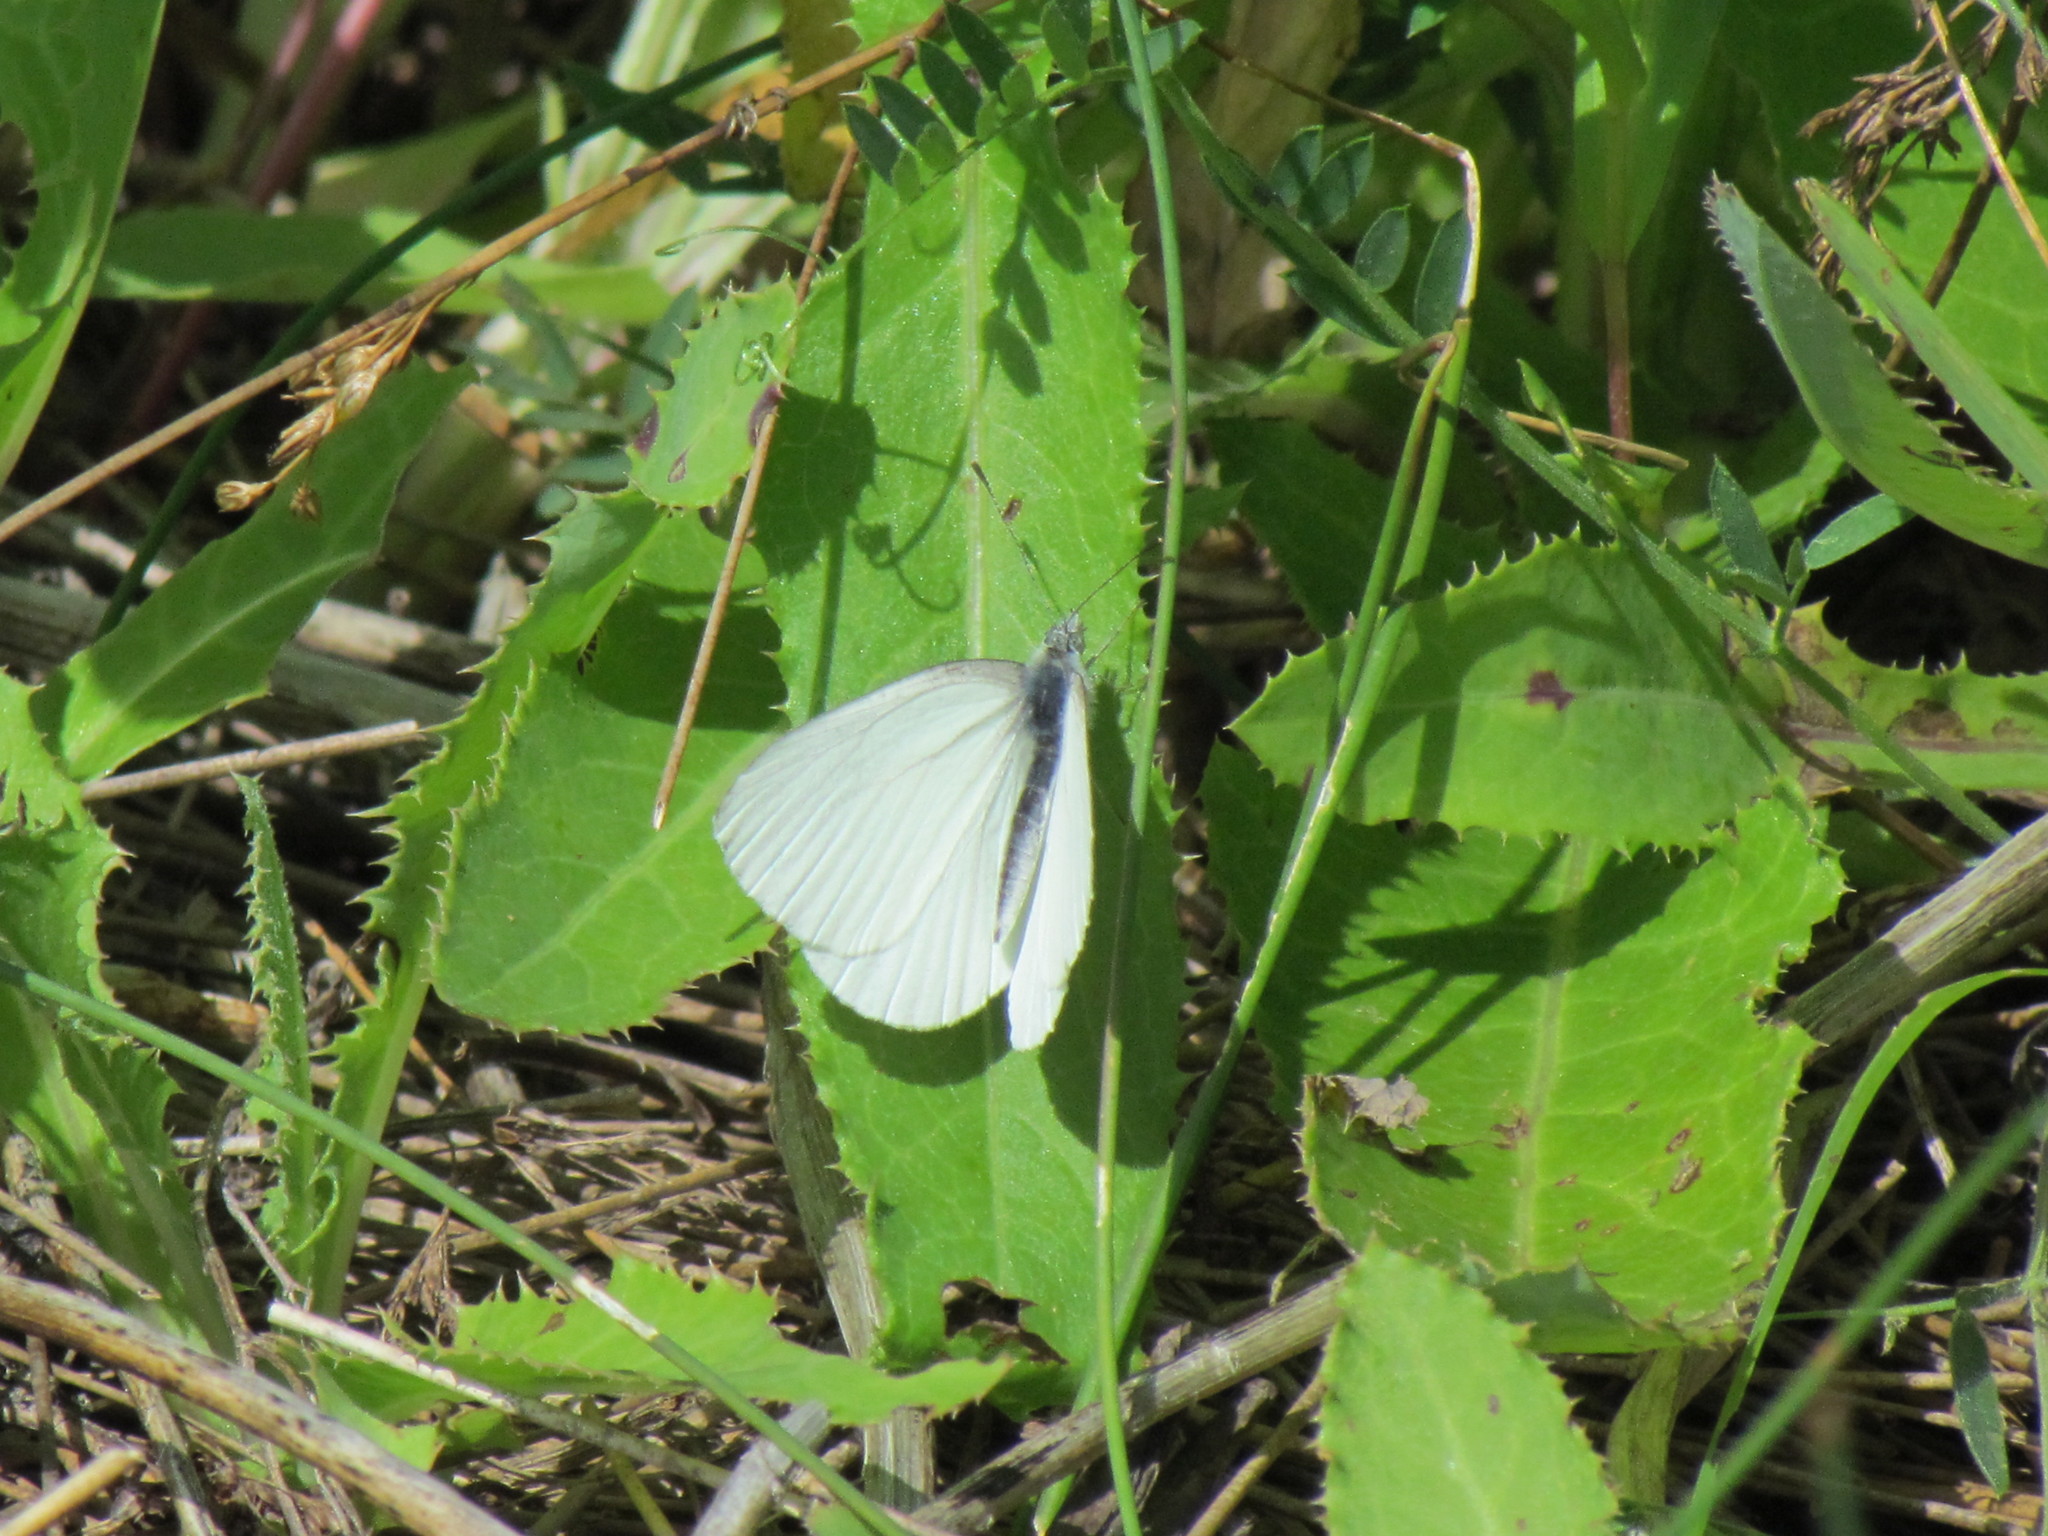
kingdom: Animalia
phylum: Arthropoda
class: Insecta
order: Lepidoptera
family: Pieridae
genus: Pieris
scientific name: Pieris oleracea
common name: Mustard white
